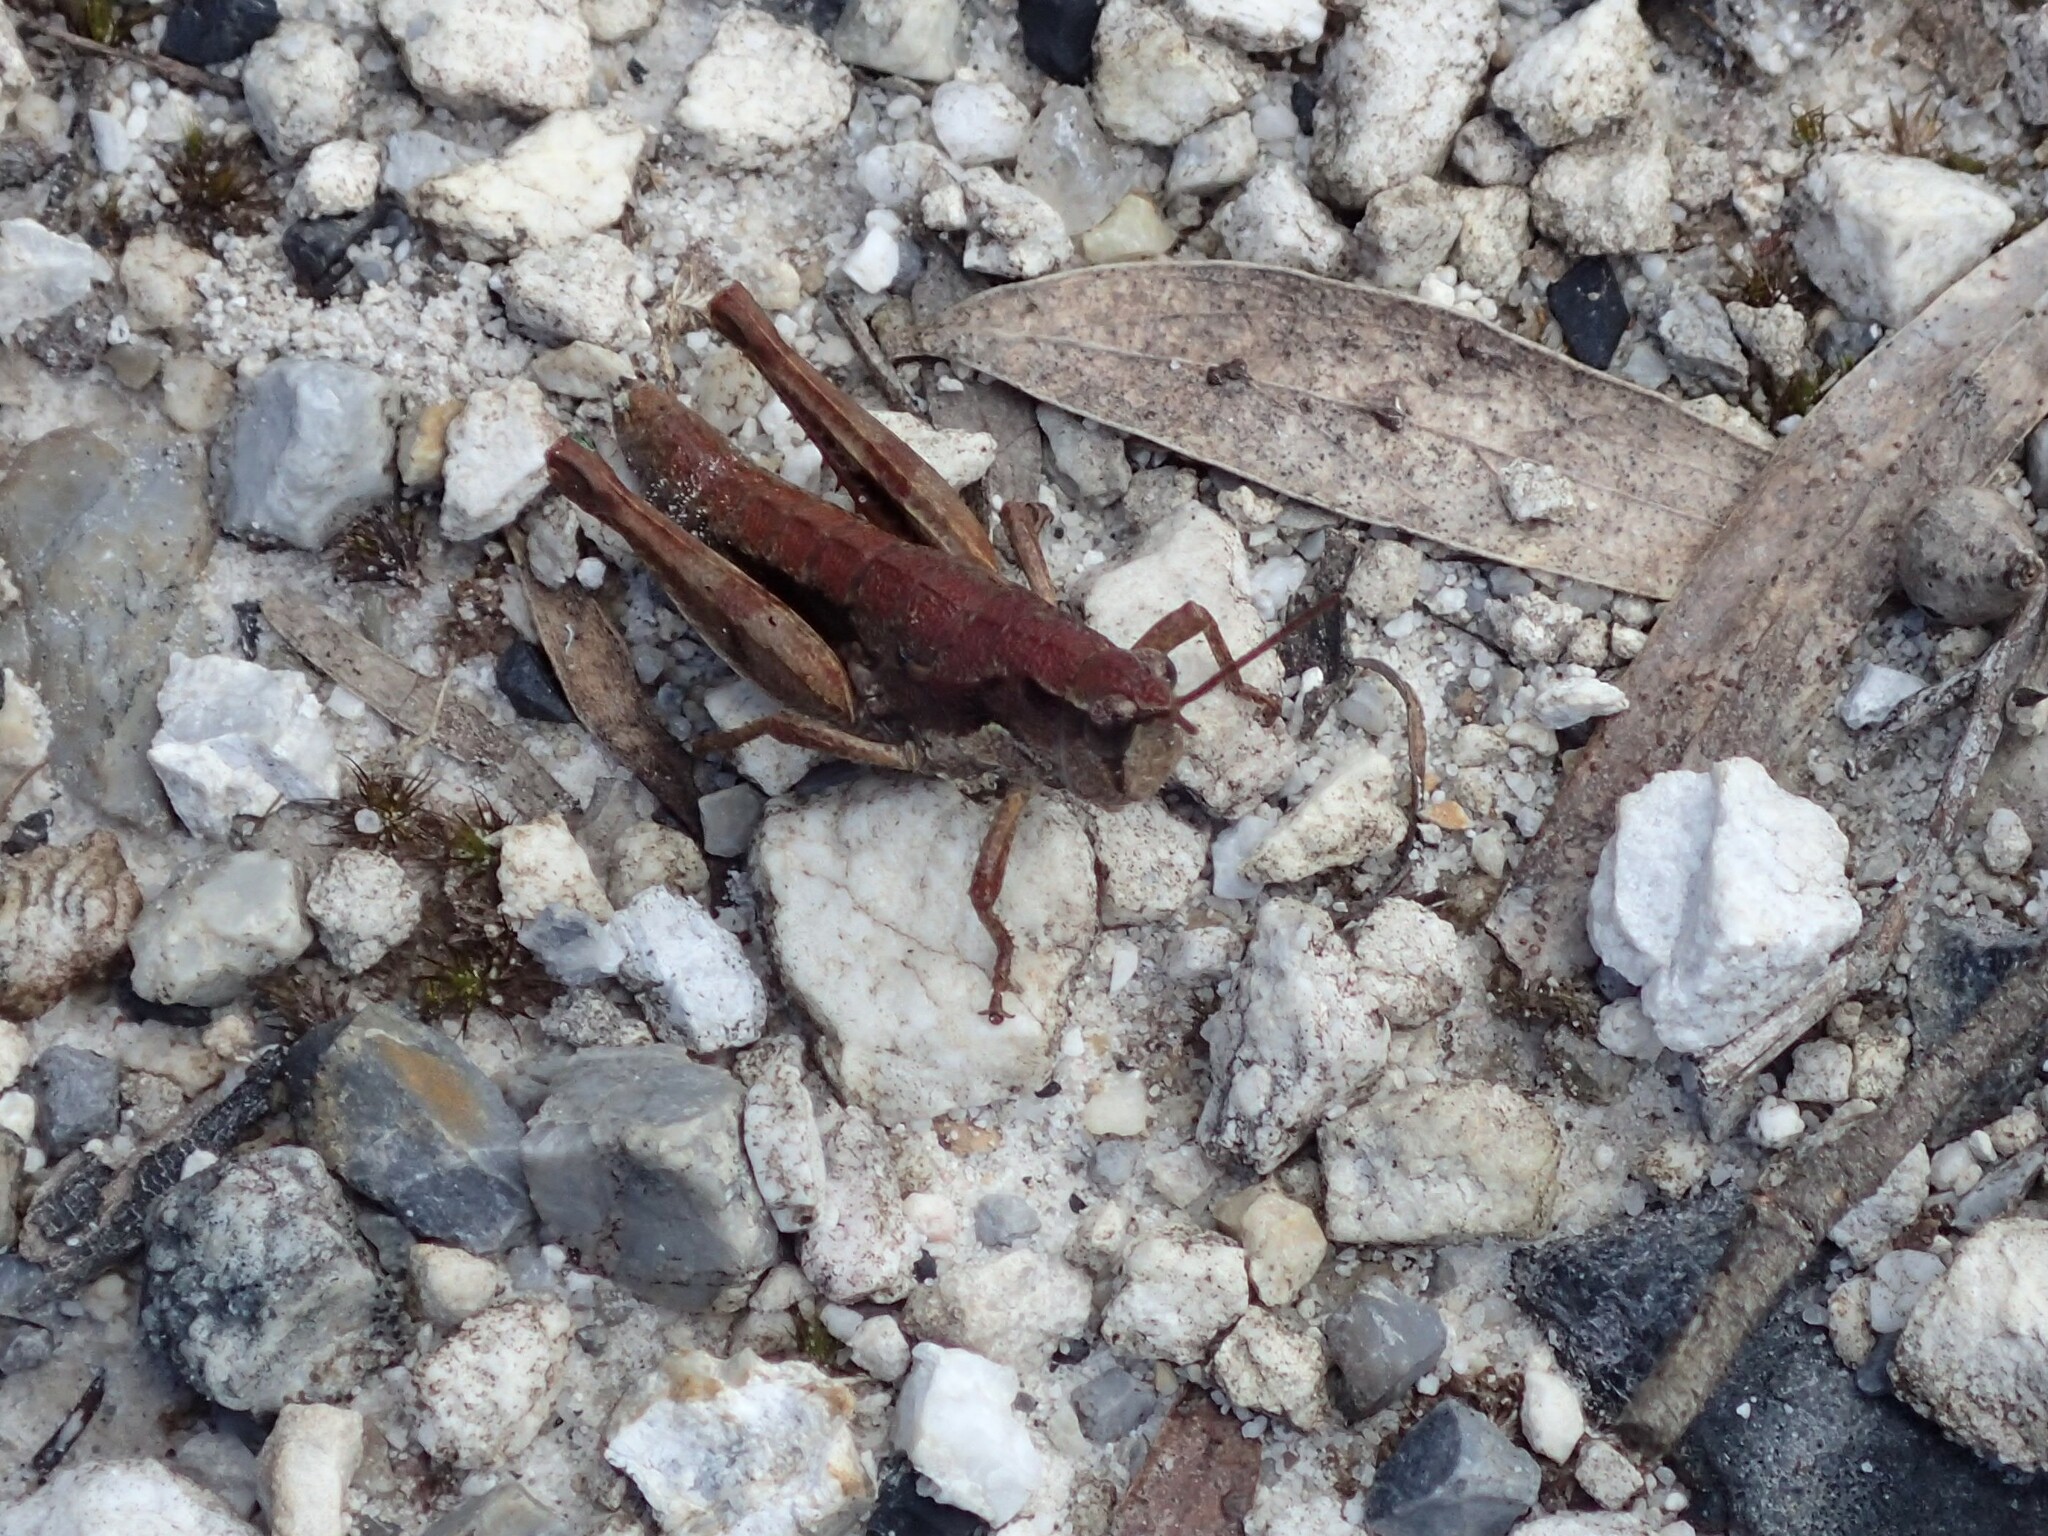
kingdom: Animalia
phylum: Arthropoda
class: Insecta
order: Orthoptera
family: Acrididae
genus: Tasmaniacris
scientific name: Tasmaniacris tasmaniensis
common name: Tasmanian grasshopper
